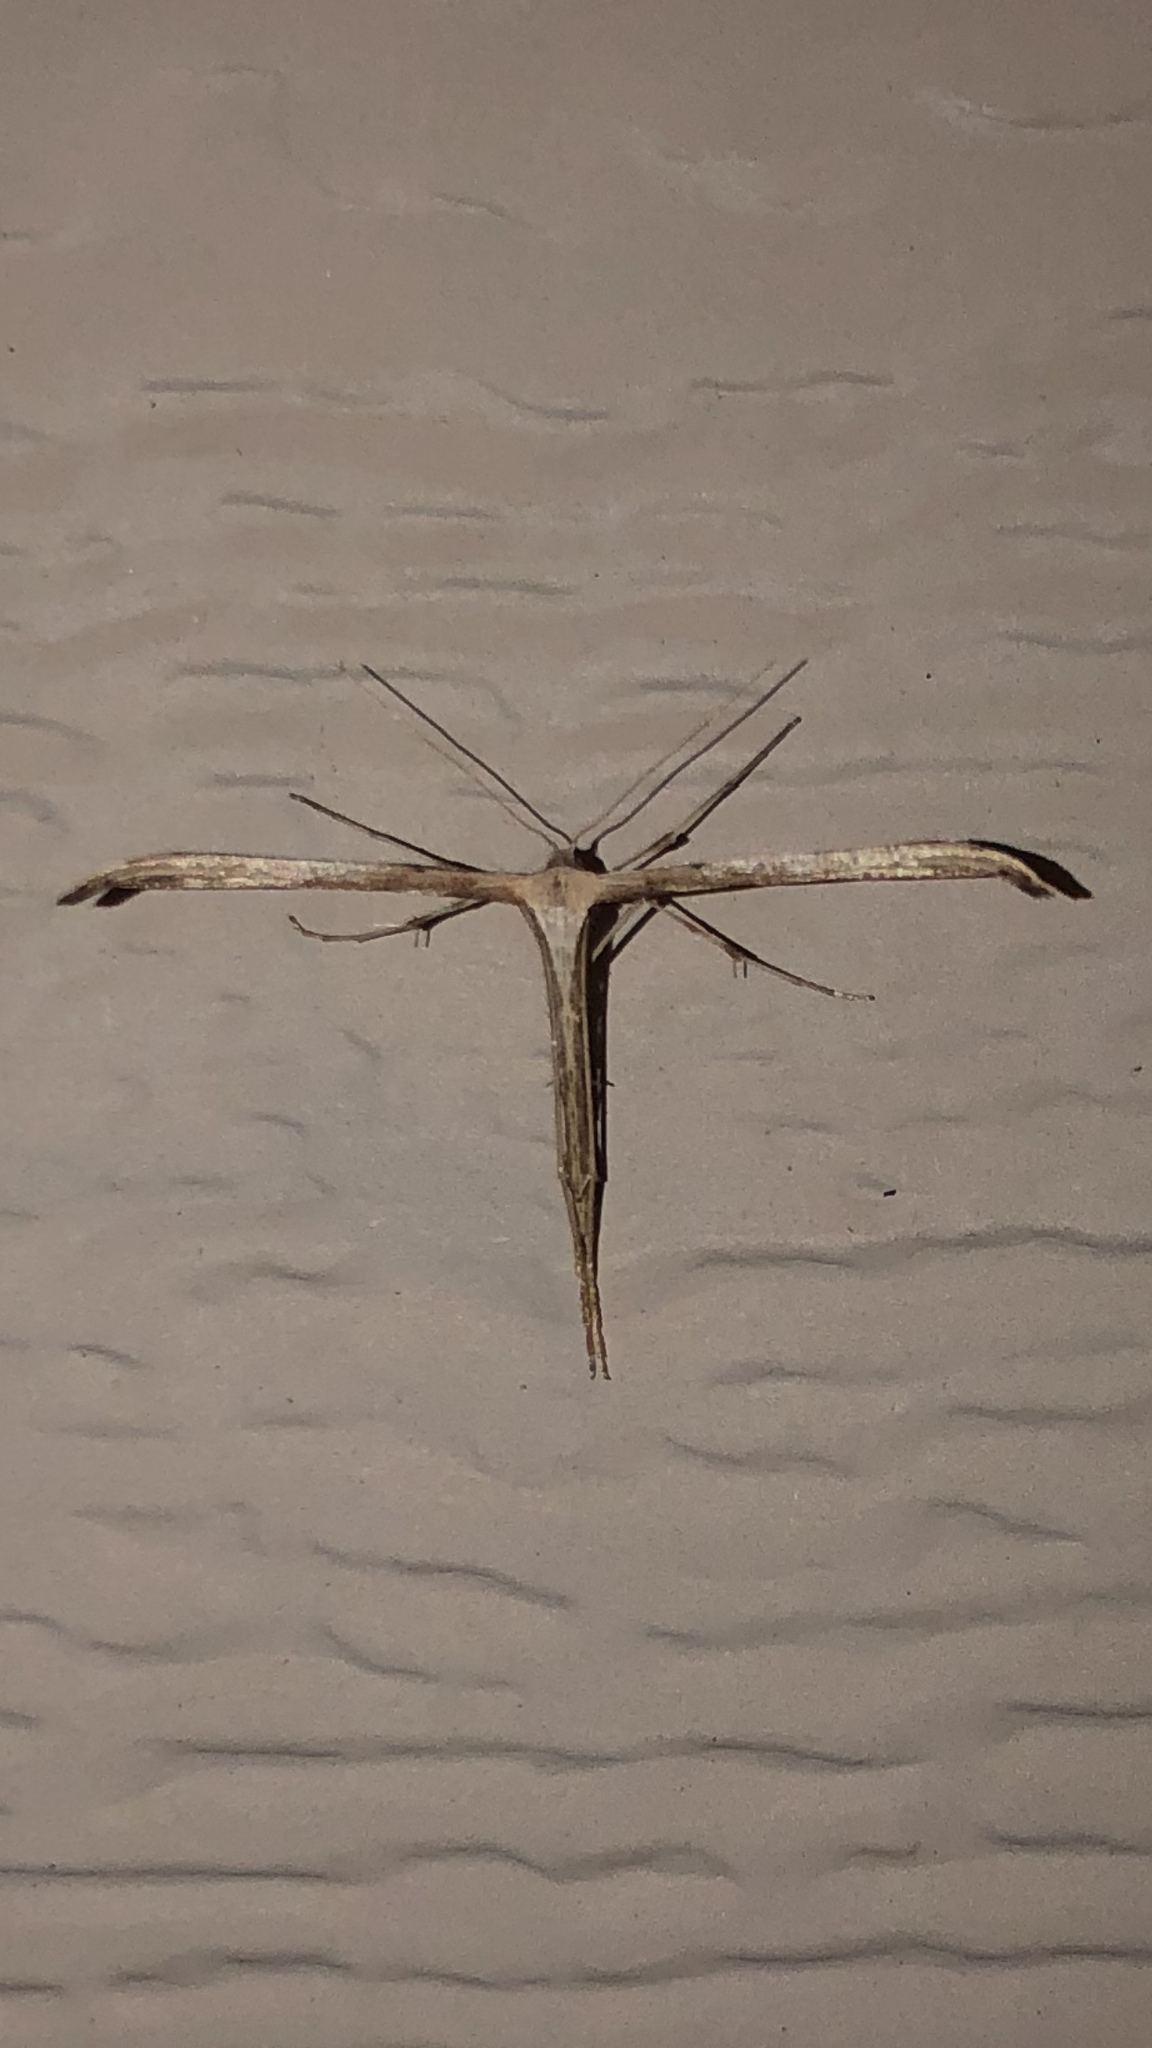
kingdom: Animalia
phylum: Arthropoda
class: Insecta
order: Lepidoptera
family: Pterophoridae
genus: Emmelina
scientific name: Emmelina monodactyla
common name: Common plume
